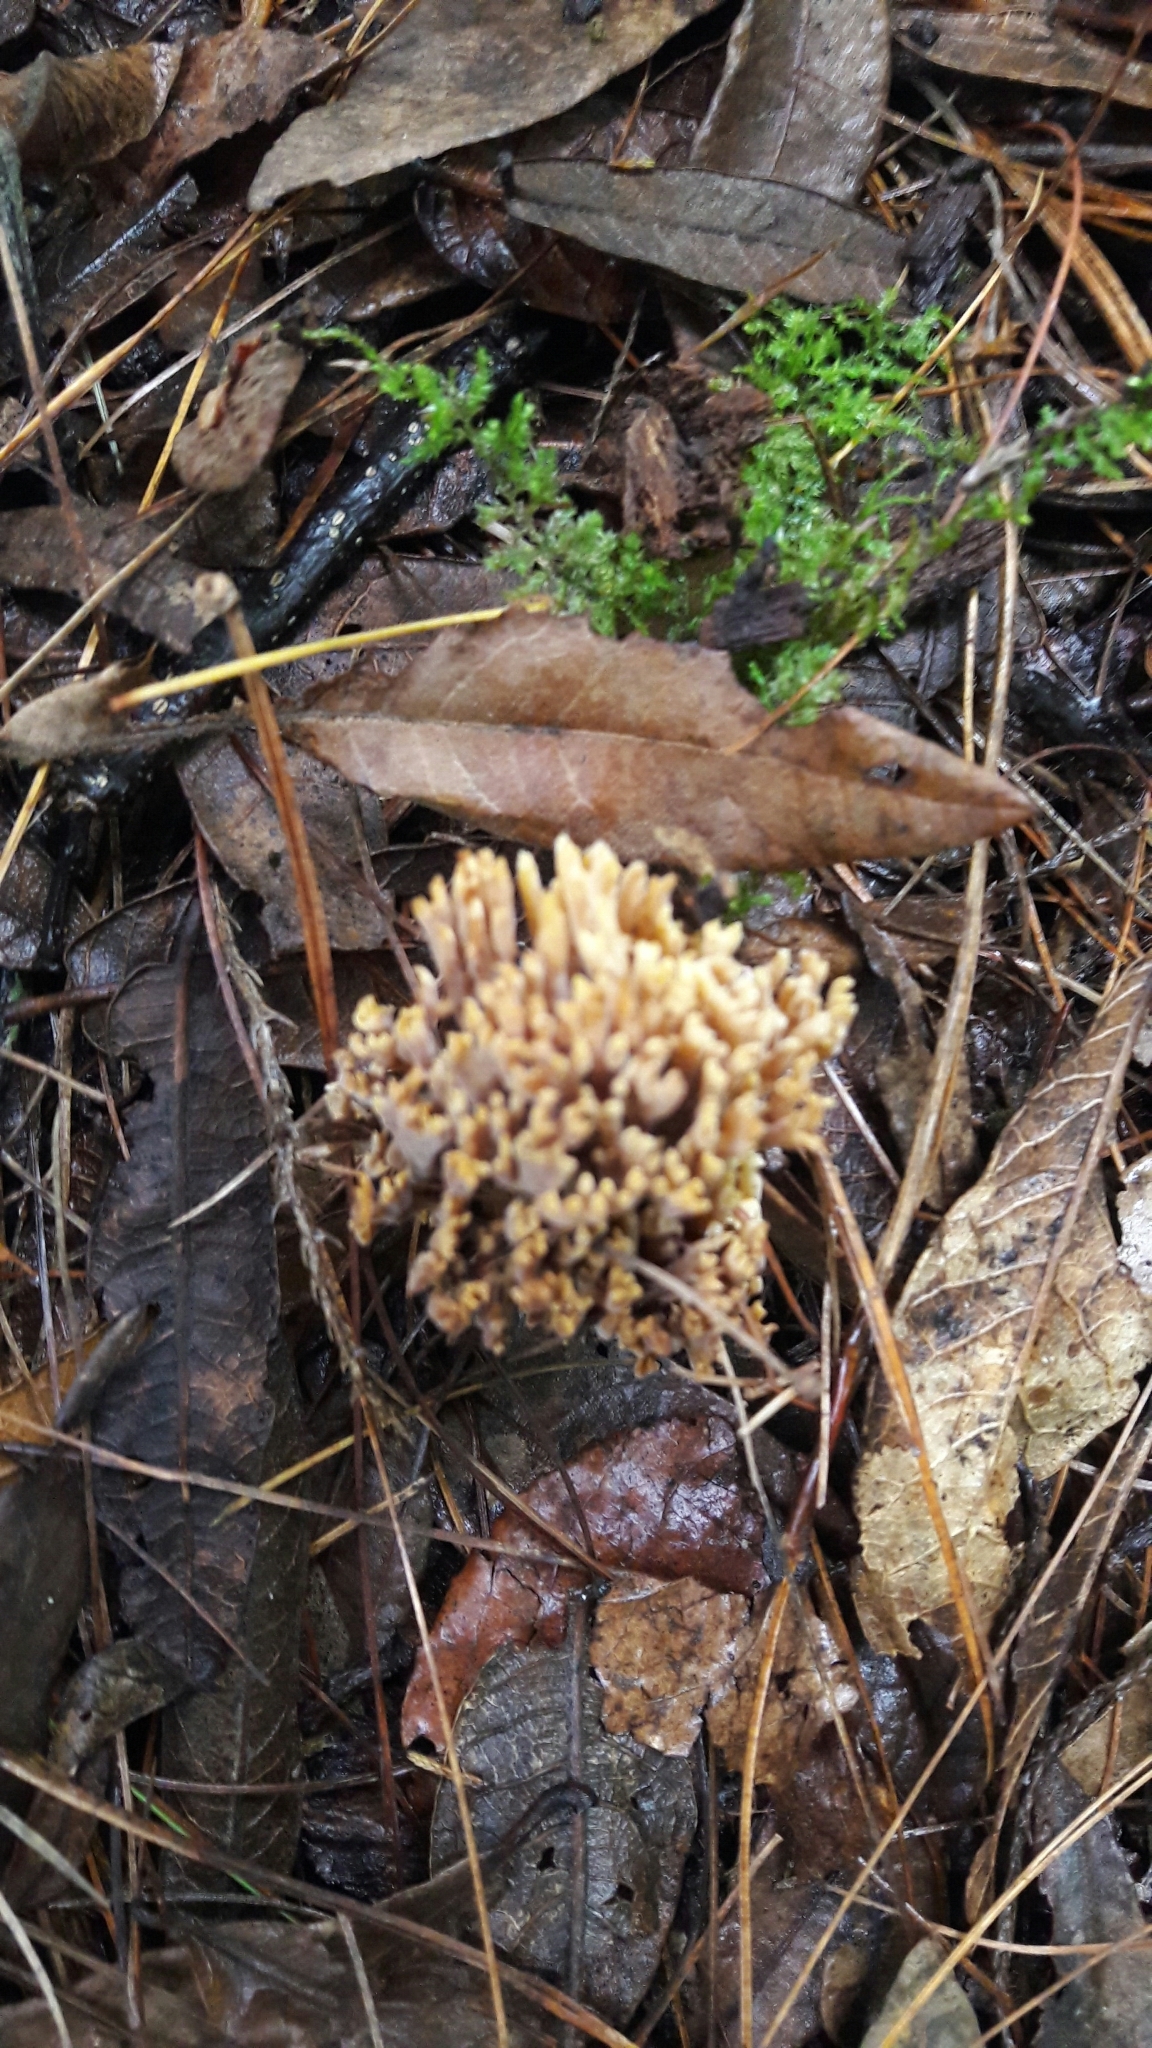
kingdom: Fungi
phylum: Basidiomycota
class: Agaricomycetes
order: Gomphales
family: Gomphaceae
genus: Ramaria
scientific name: Ramaria stricta
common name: Upright coral
